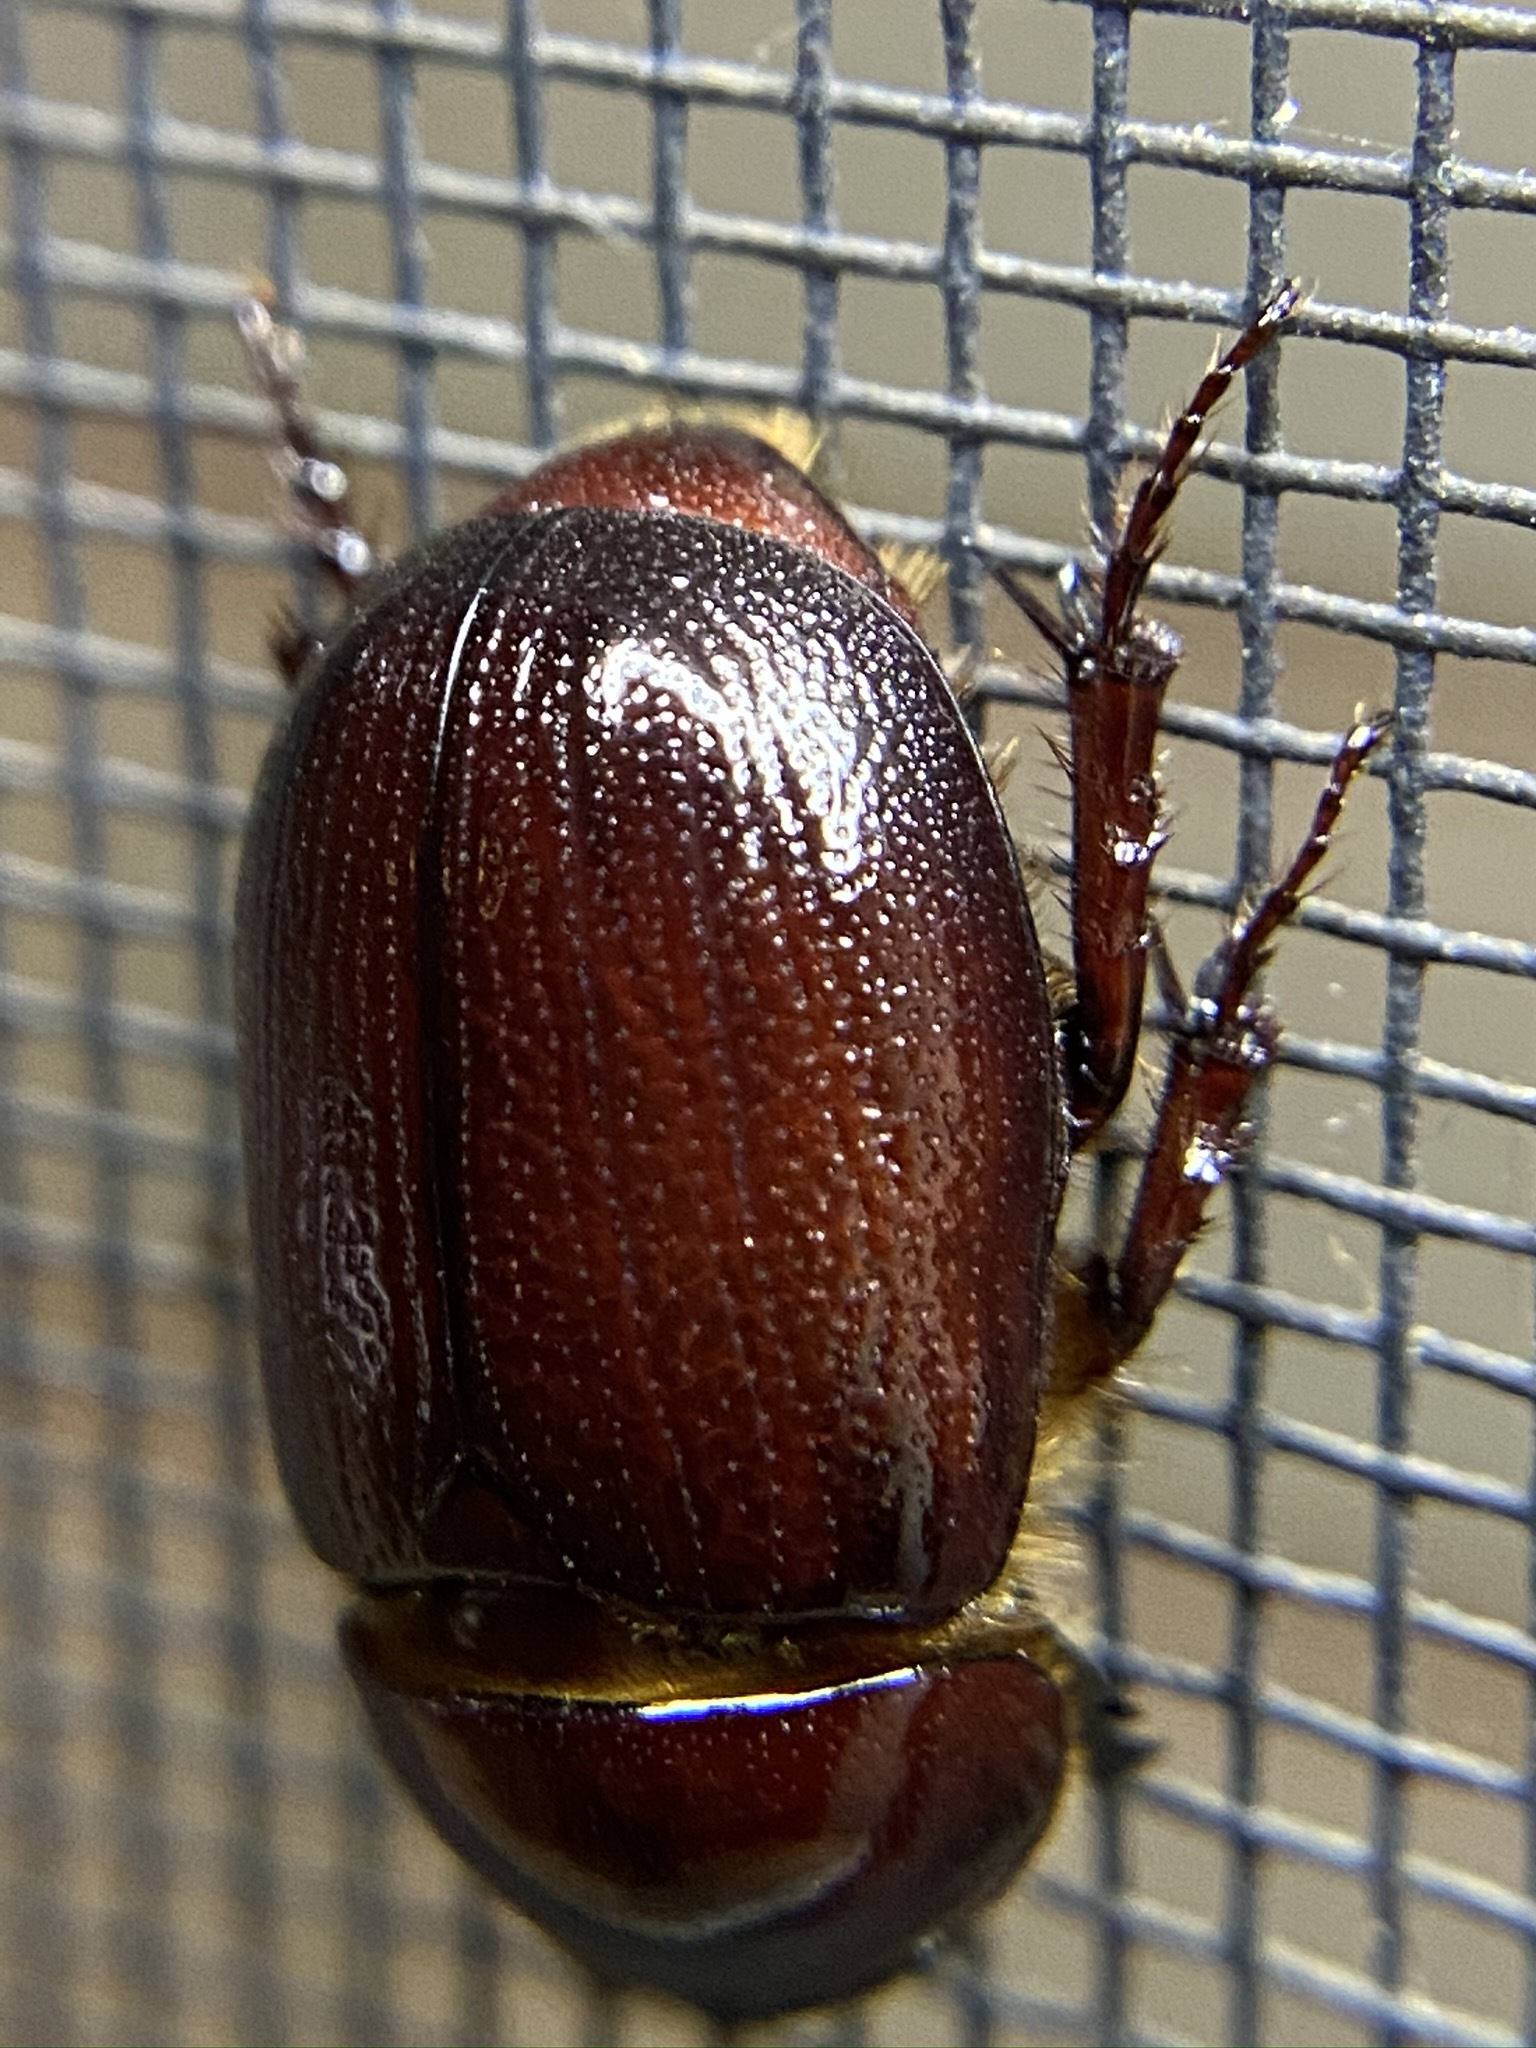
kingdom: Animalia
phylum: Arthropoda
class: Insecta
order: Coleoptera
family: Scarabaeidae
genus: Ligyrus
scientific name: Ligyrus gibbosus
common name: Carrot beetle
